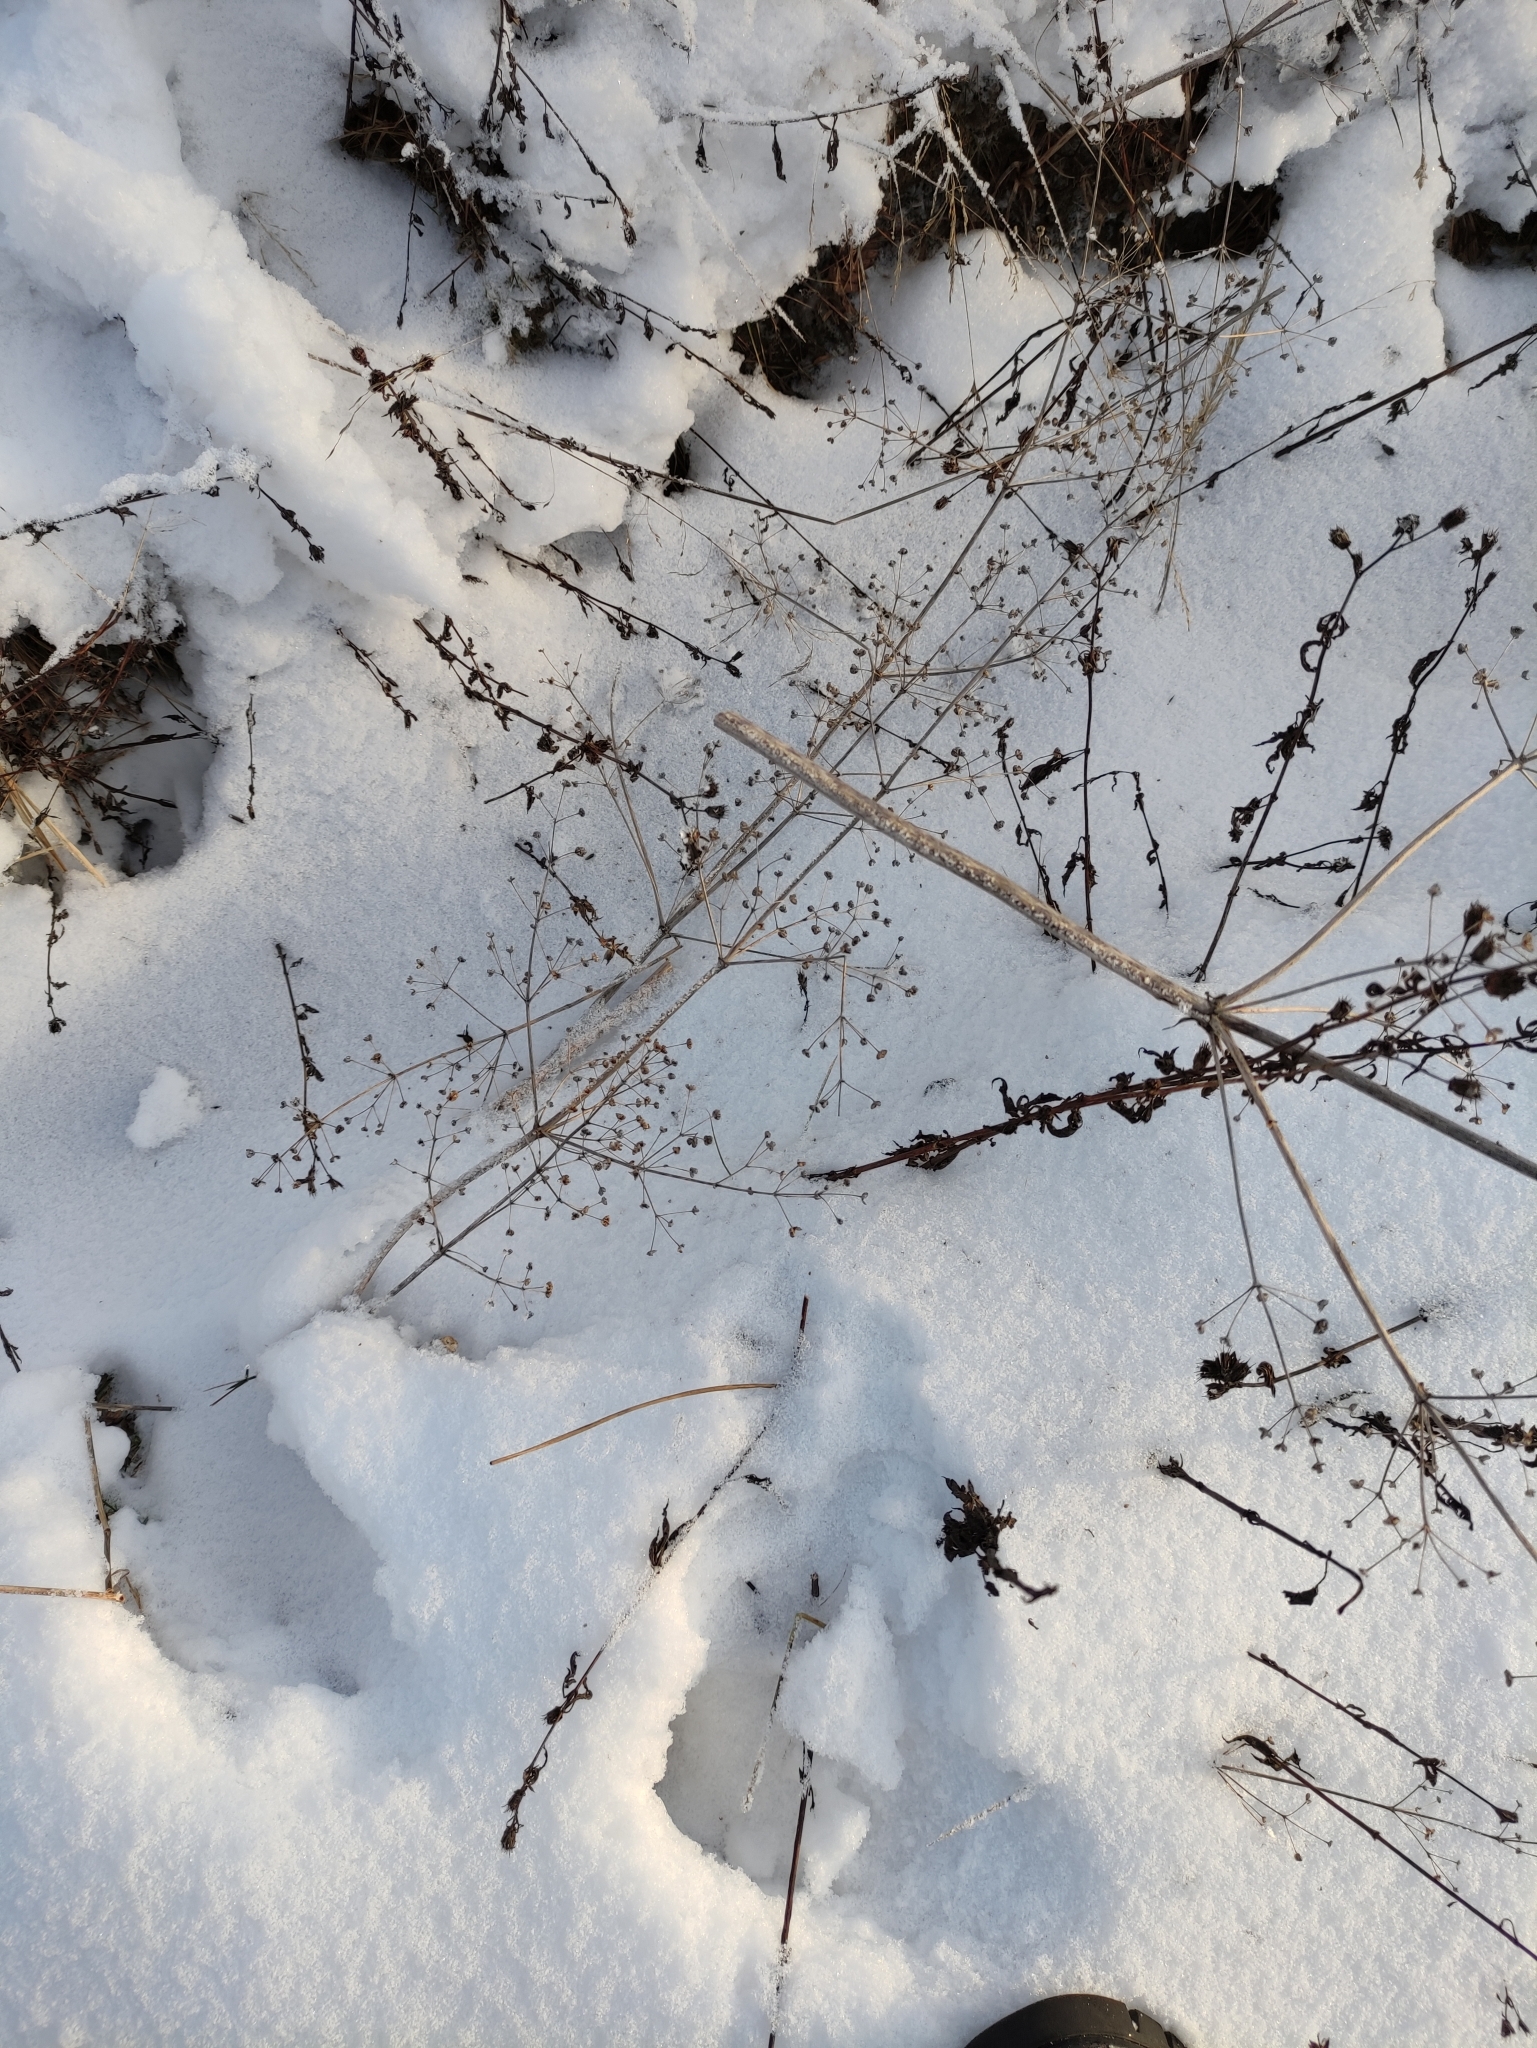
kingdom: Plantae
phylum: Tracheophyta
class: Liliopsida
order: Alismatales
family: Alismataceae
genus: Alisma
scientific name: Alisma plantago-aquatica
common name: Water-plantain
